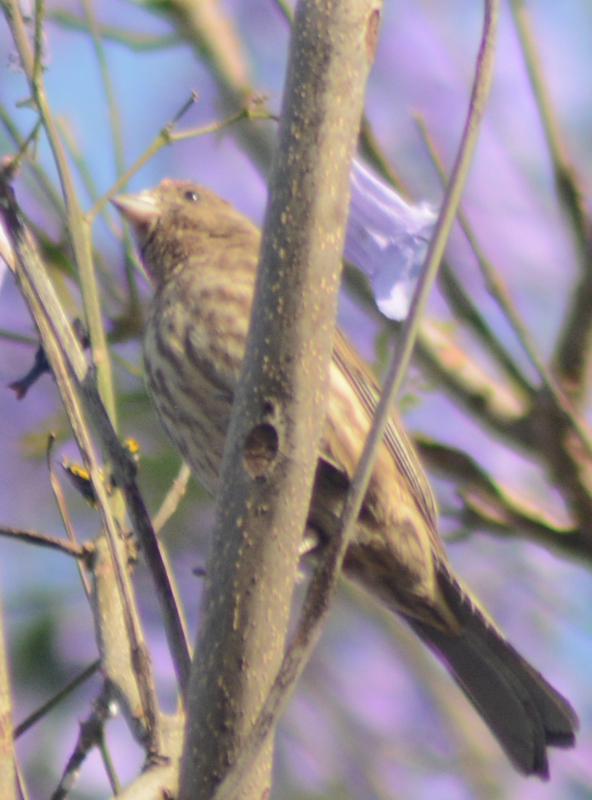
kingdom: Animalia
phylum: Chordata
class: Aves
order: Passeriformes
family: Fringillidae
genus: Haemorhous
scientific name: Haemorhous mexicanus
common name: House finch
